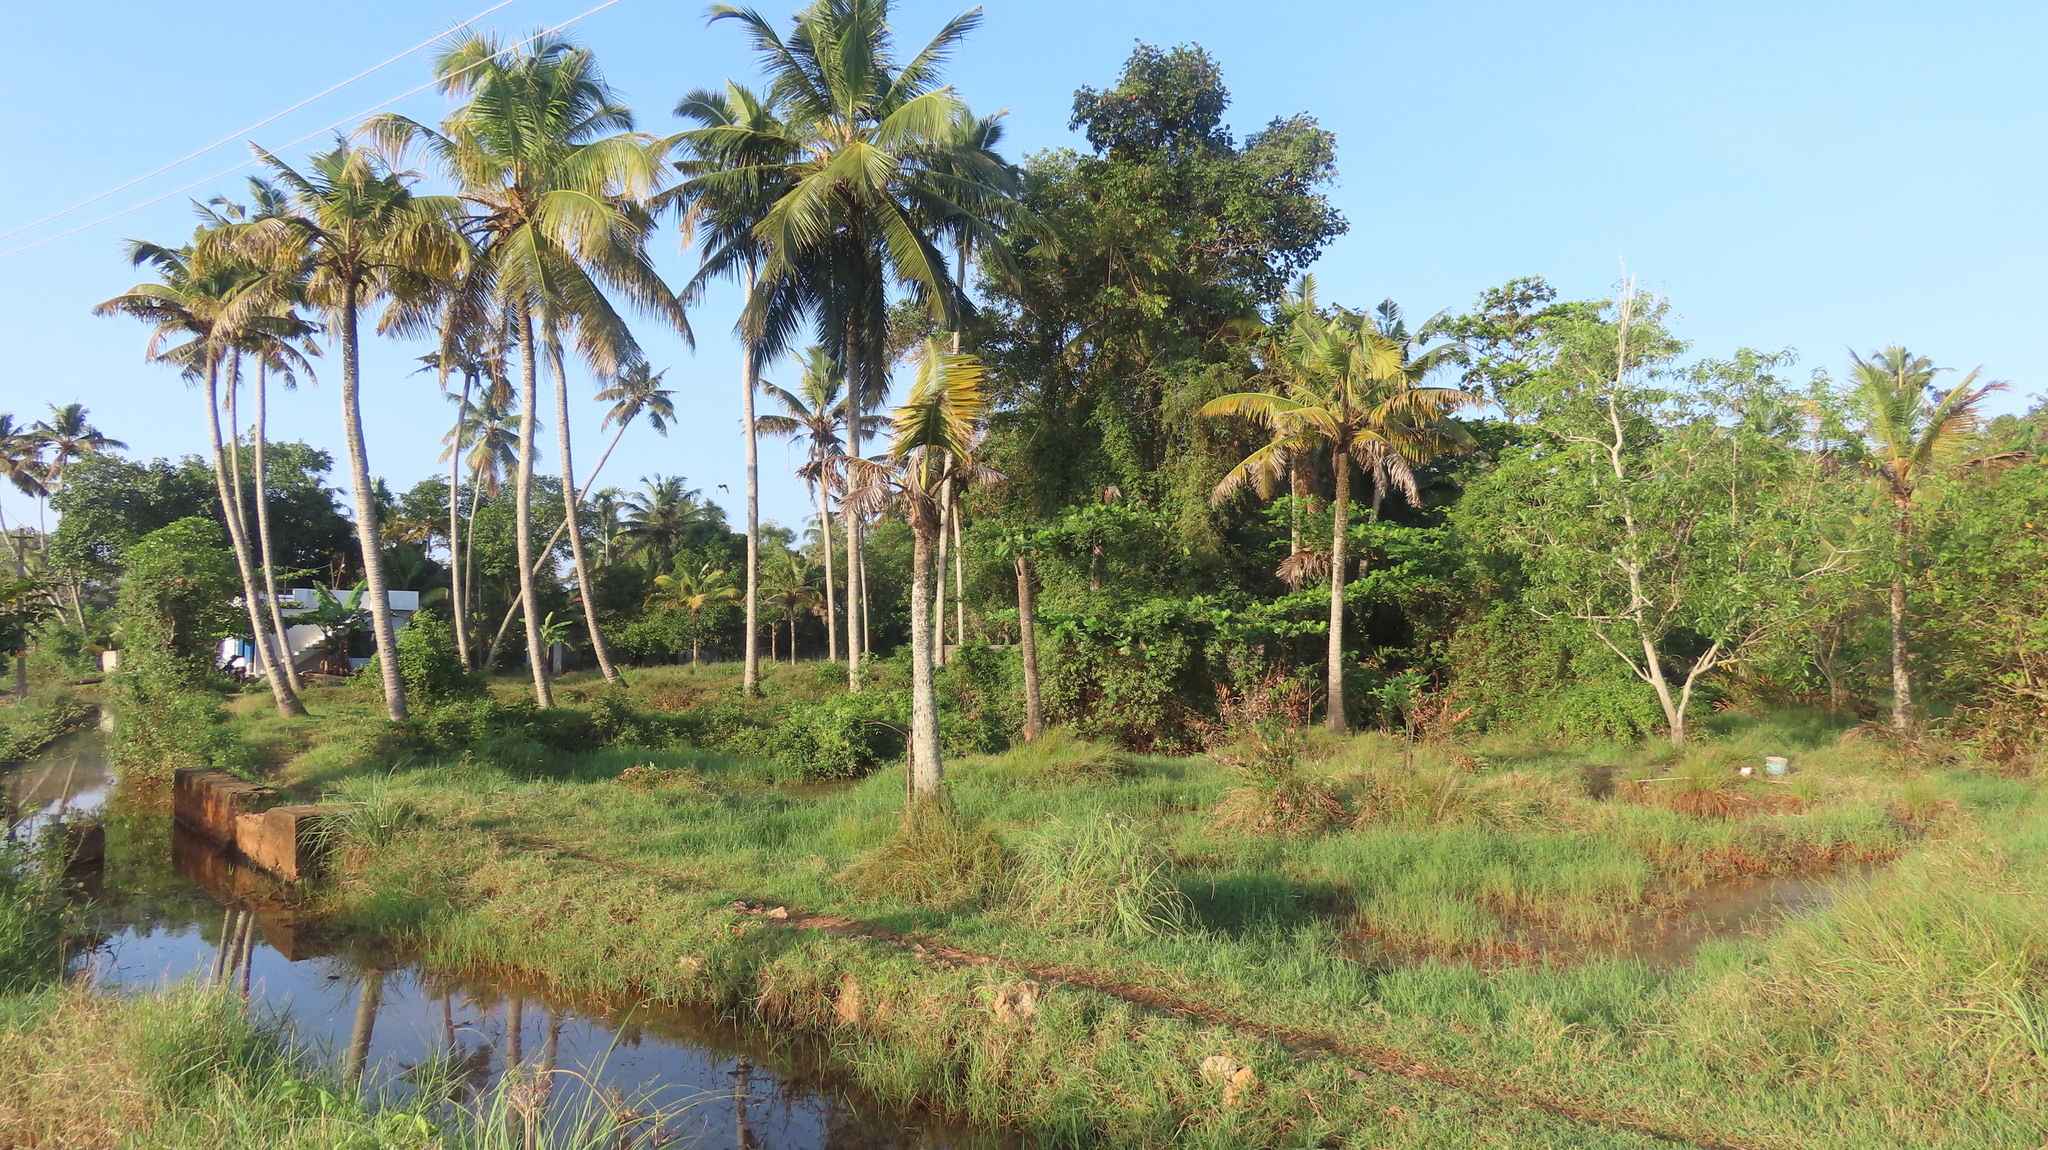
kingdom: Plantae
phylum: Tracheophyta
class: Liliopsida
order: Arecales
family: Arecaceae
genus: Cocos
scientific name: Cocos nucifera
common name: Coconut palm
